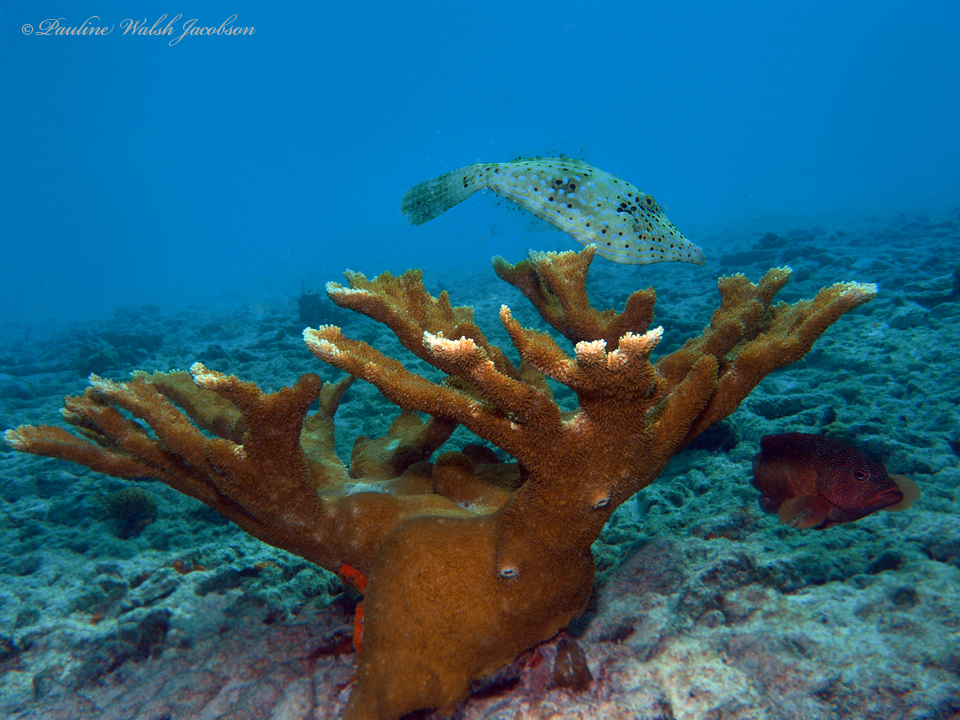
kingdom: Animalia
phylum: Chordata
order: Tetraodontiformes
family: Monacanthidae
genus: Aluterus
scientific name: Aluterus scriptus
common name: Scribbled leatherjacket filefish
